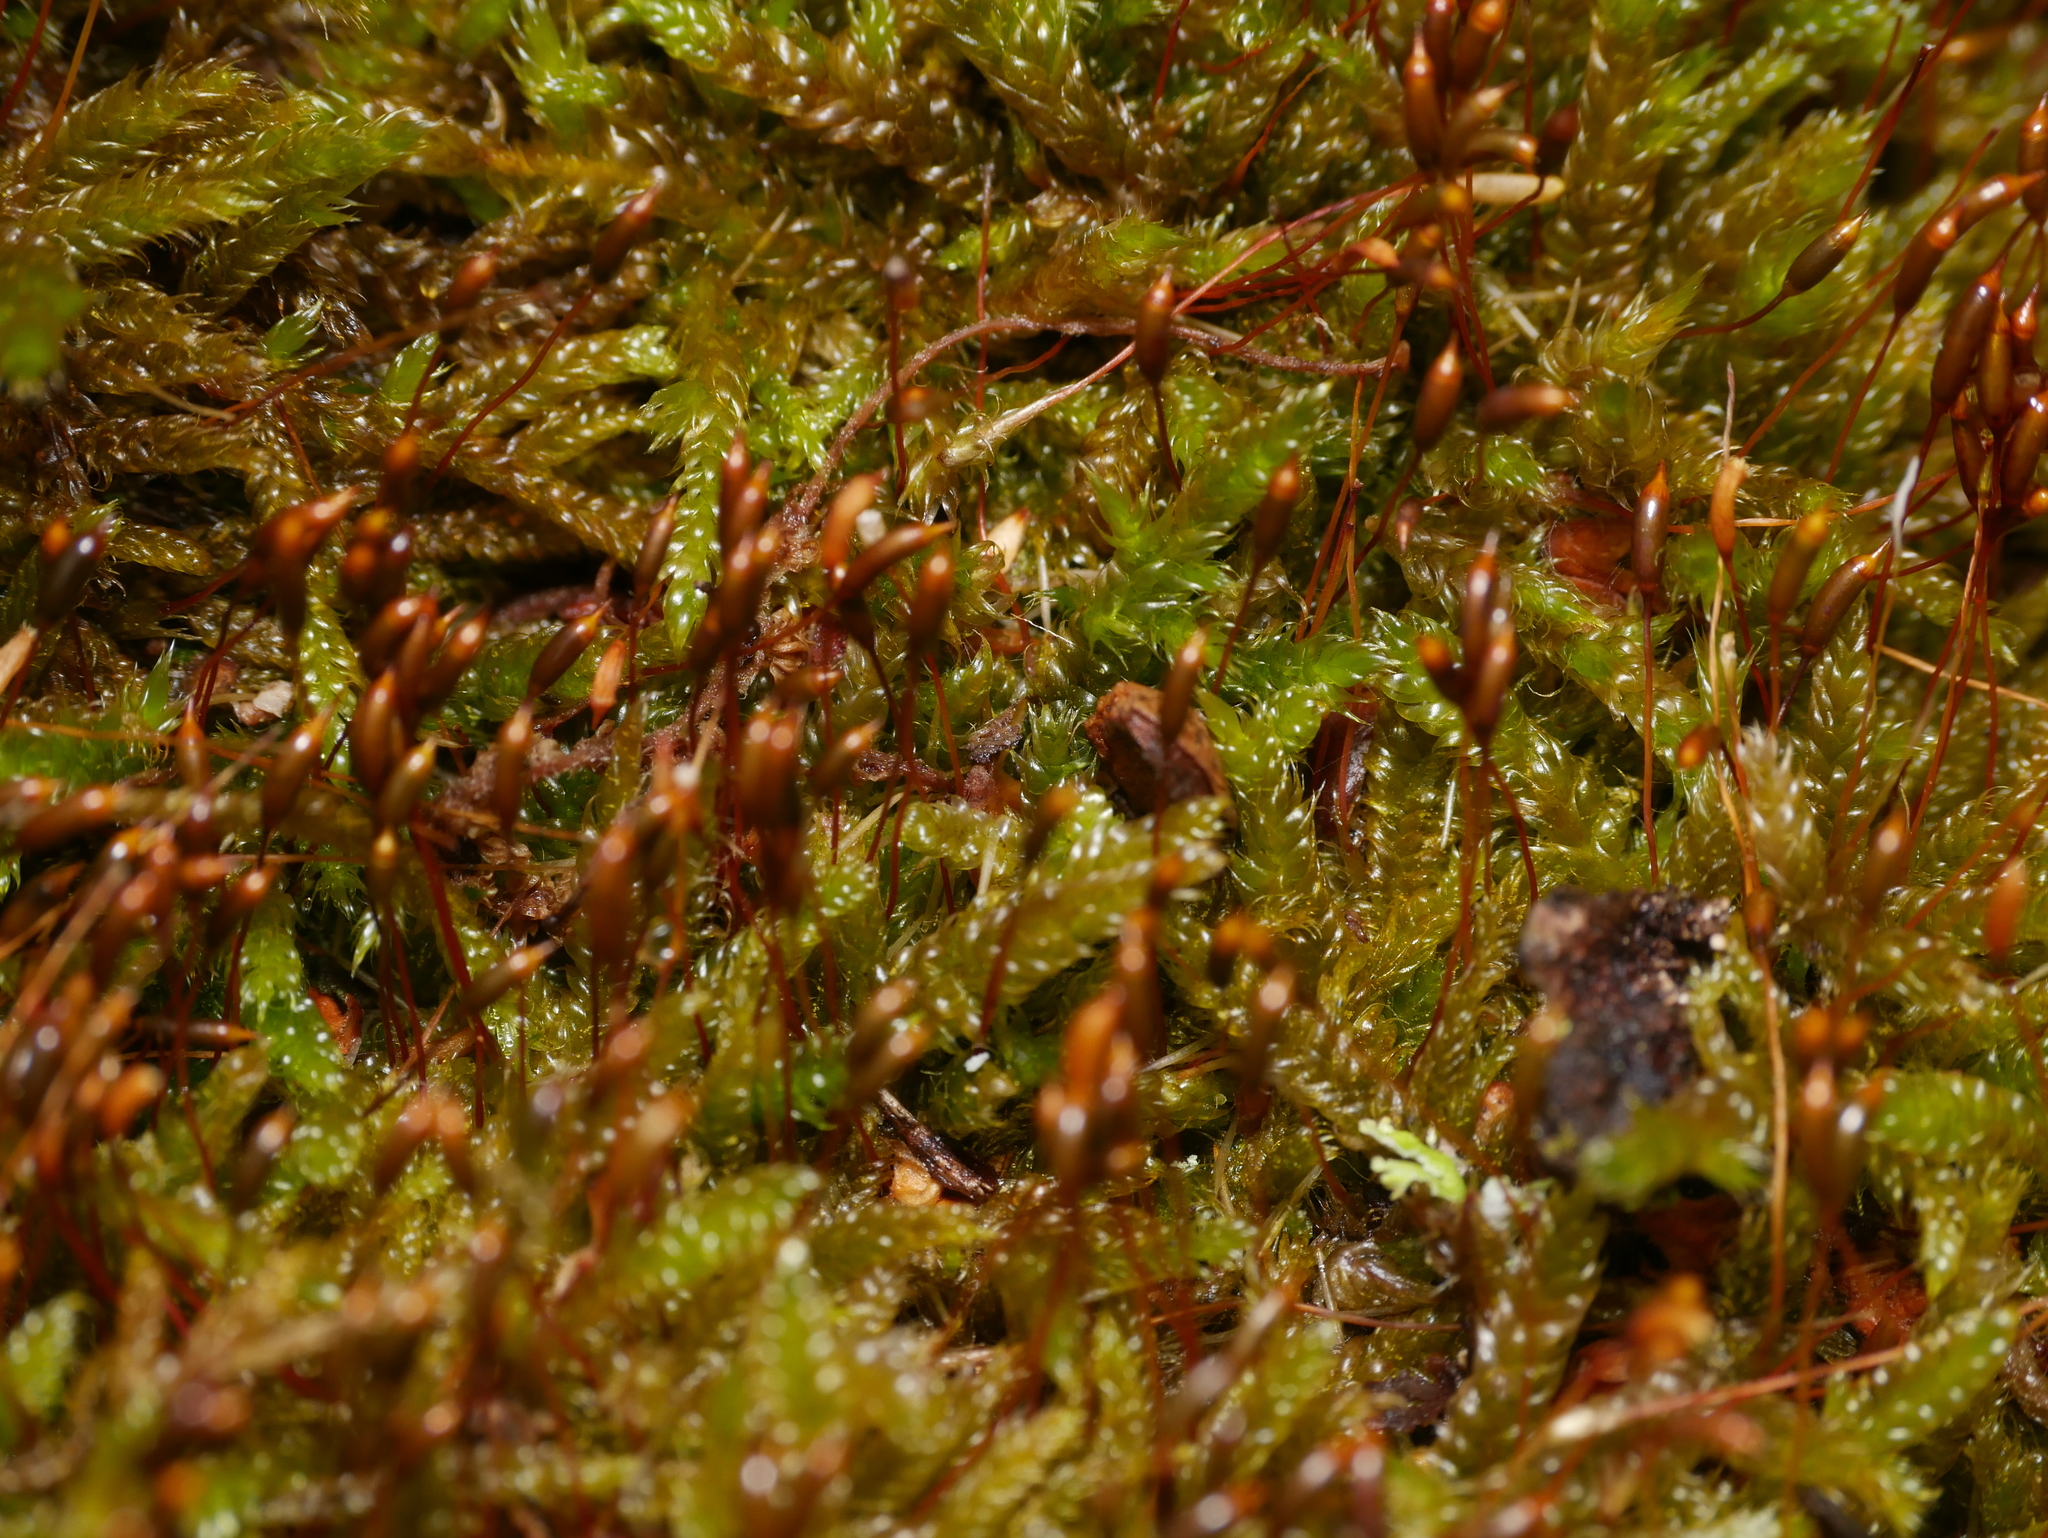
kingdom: Plantae
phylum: Bryophyta
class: Bryopsida
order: Hypnales
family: Hypnaceae
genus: Hypnum
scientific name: Hypnum cupressiforme
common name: Cypress-leaved plait-moss
